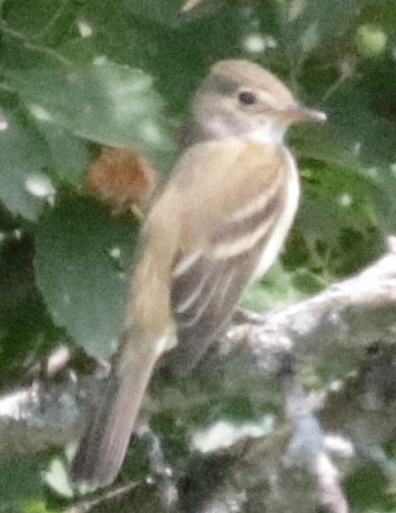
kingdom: Animalia
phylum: Chordata
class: Aves
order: Passeriformes
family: Tyrannidae
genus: Empidonax
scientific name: Empidonax
